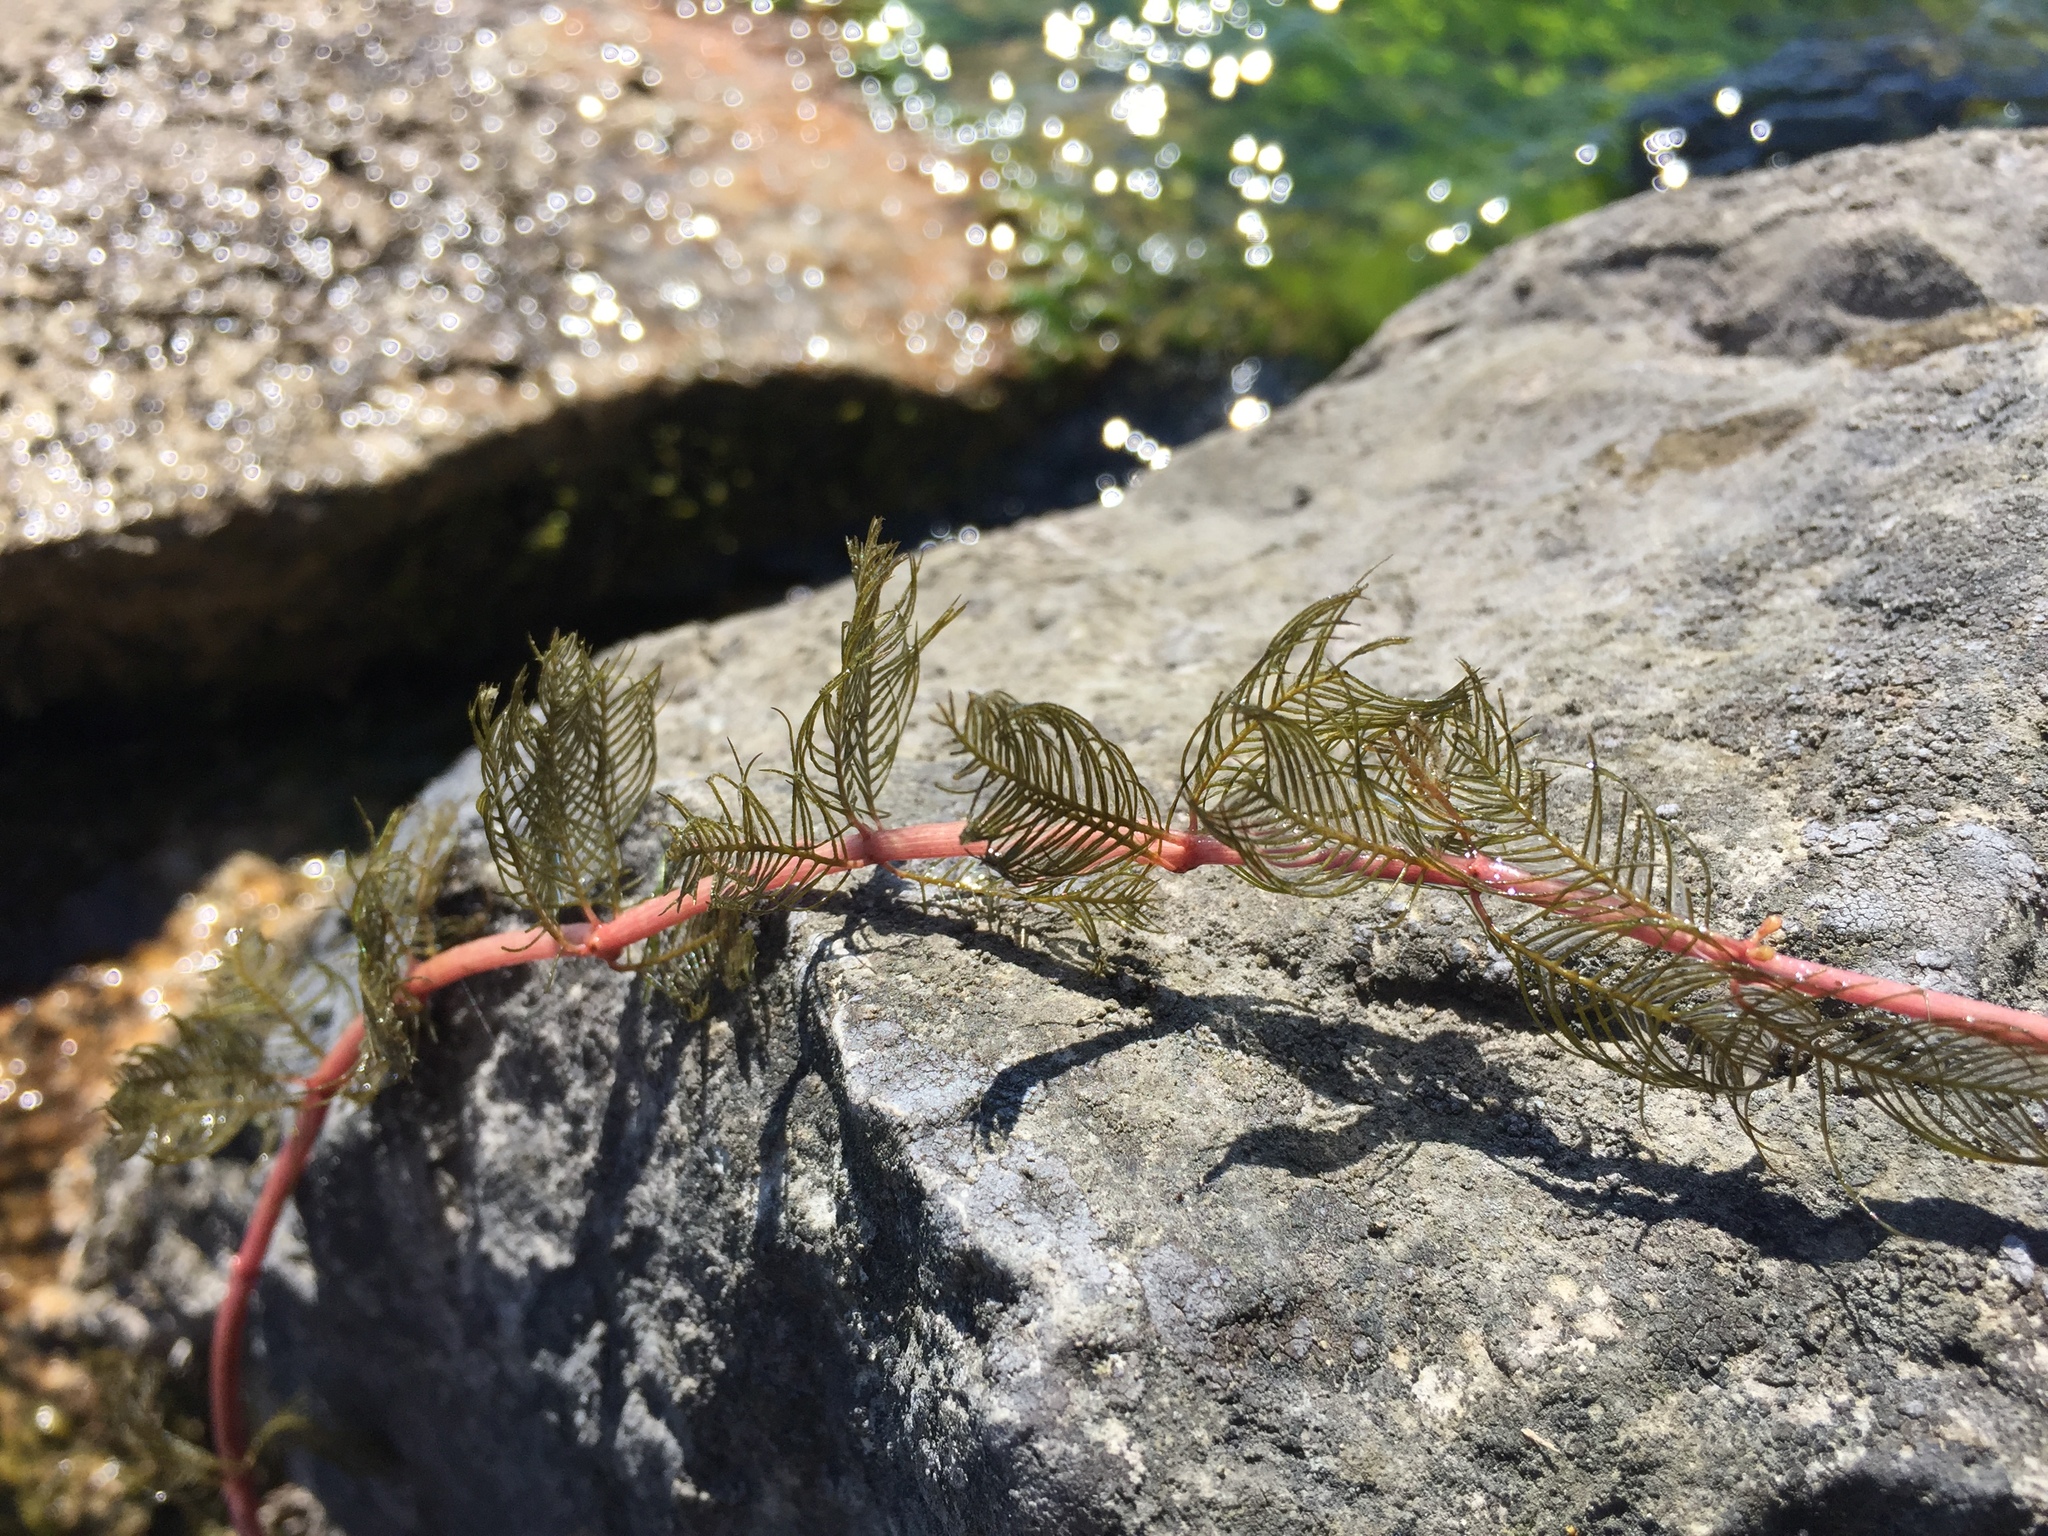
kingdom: Plantae
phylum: Tracheophyta
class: Magnoliopsida
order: Saxifragales
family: Haloragaceae
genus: Myriophyllum
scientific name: Myriophyllum spicatum
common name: Spiked water-milfoil
